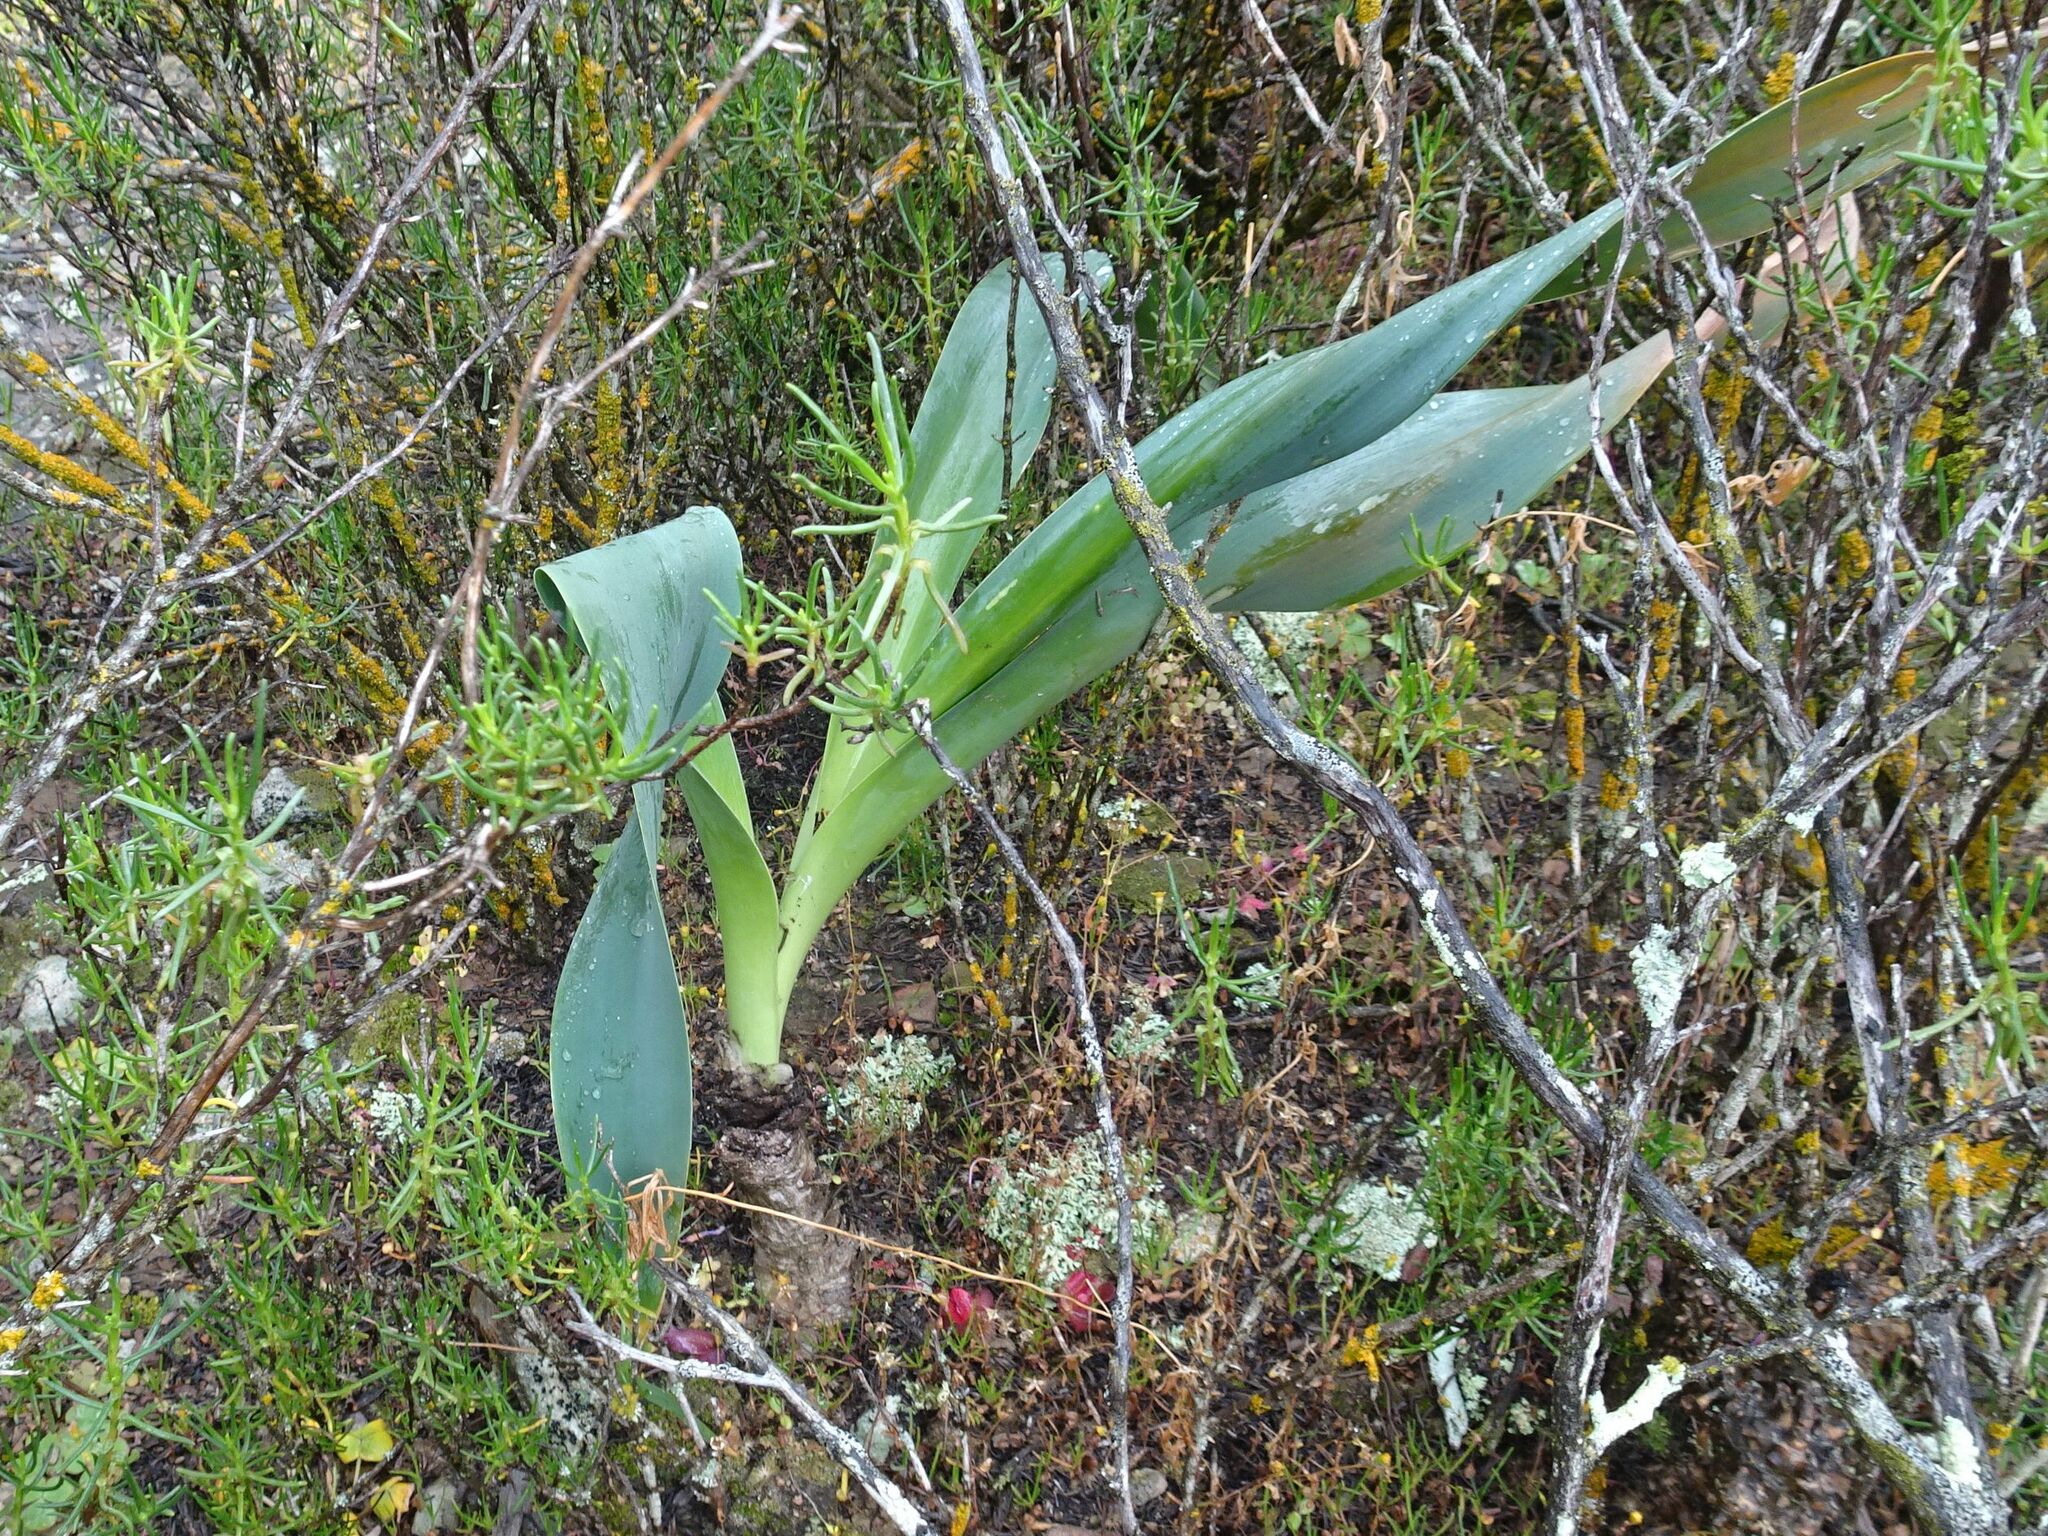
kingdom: Plantae
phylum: Tracheophyta
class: Liliopsida
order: Asparagales
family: Asparagaceae
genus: Drimia
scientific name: Drimia capensis
